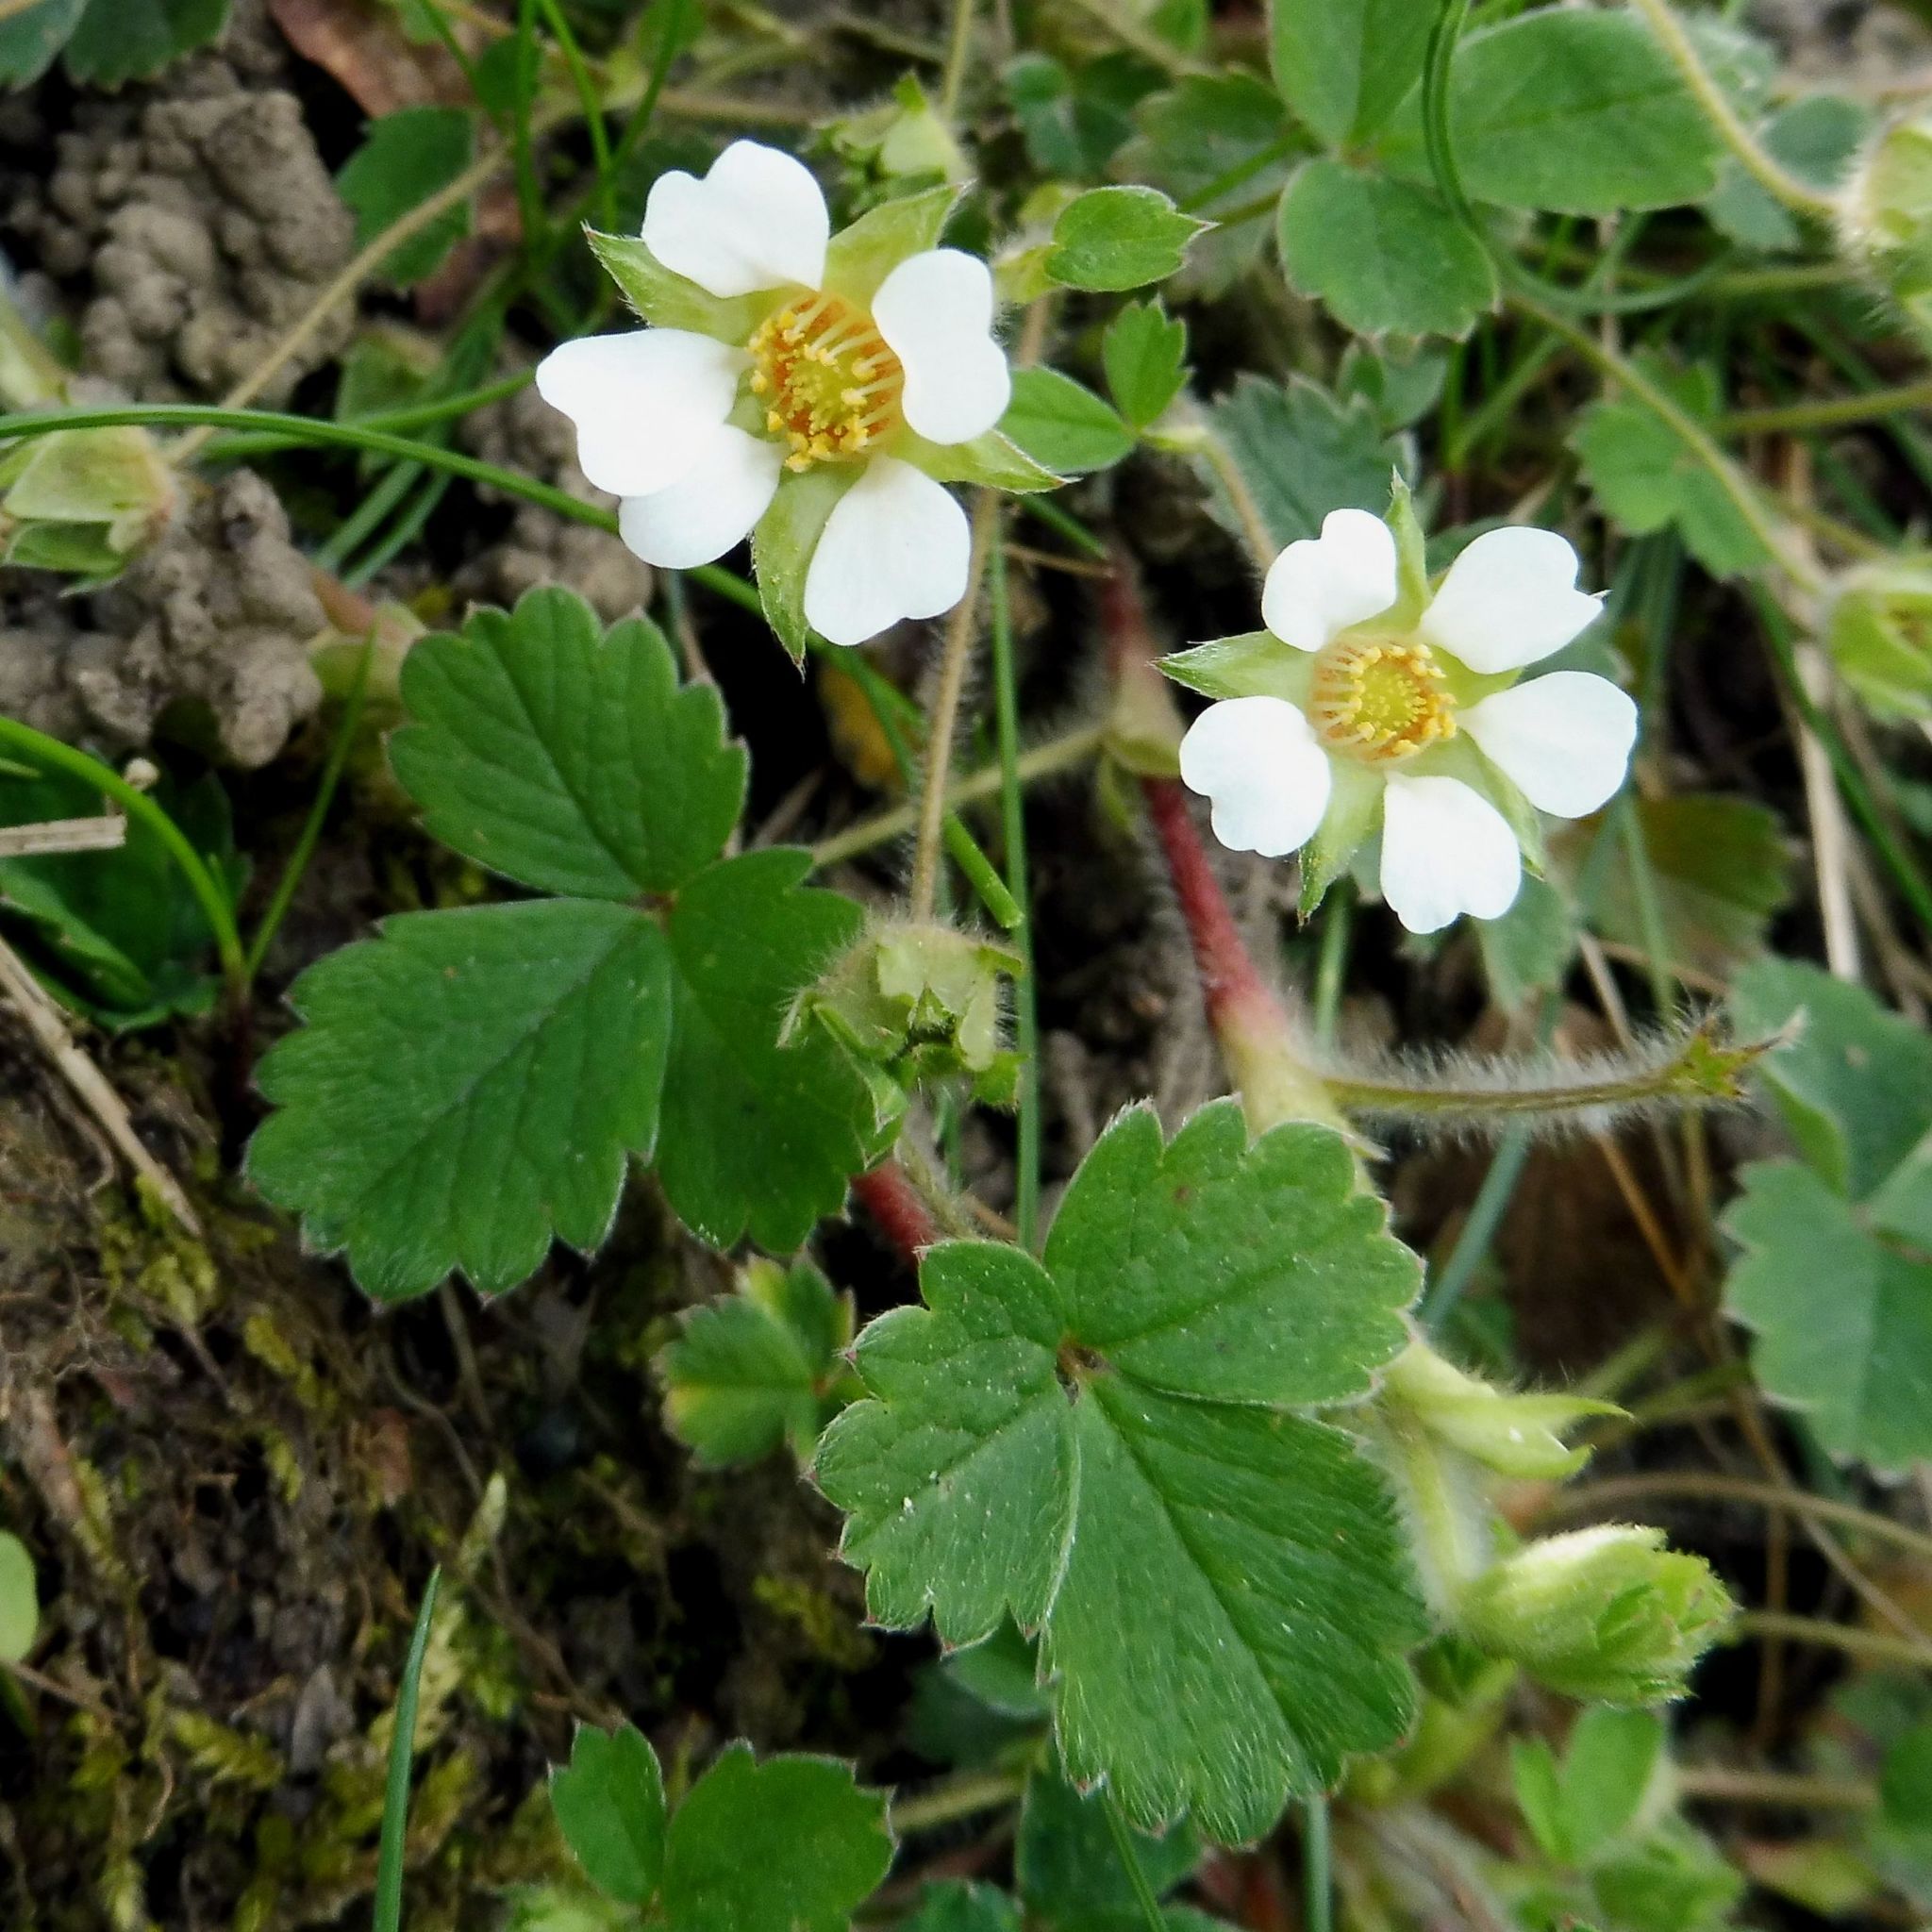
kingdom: Plantae
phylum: Tracheophyta
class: Magnoliopsida
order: Rosales
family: Rosaceae
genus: Potentilla
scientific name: Potentilla sterilis
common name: Barren strawberry
